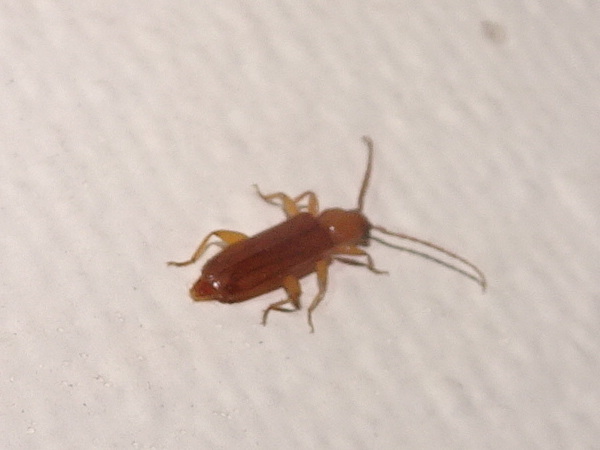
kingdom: Animalia
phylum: Arthropoda
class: Insecta
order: Coleoptera
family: Cerambycidae
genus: Smodicum
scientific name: Smodicum cucujiforme
